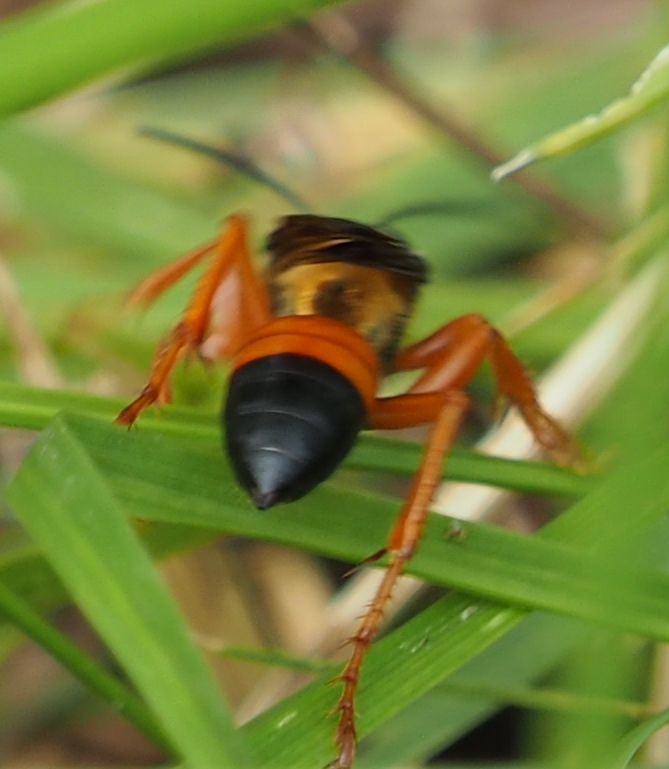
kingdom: Animalia
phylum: Arthropoda
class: Insecta
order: Hymenoptera
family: Sphecidae
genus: Sphex
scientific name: Sphex ichneumoneus
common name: Great golden digger wasp
